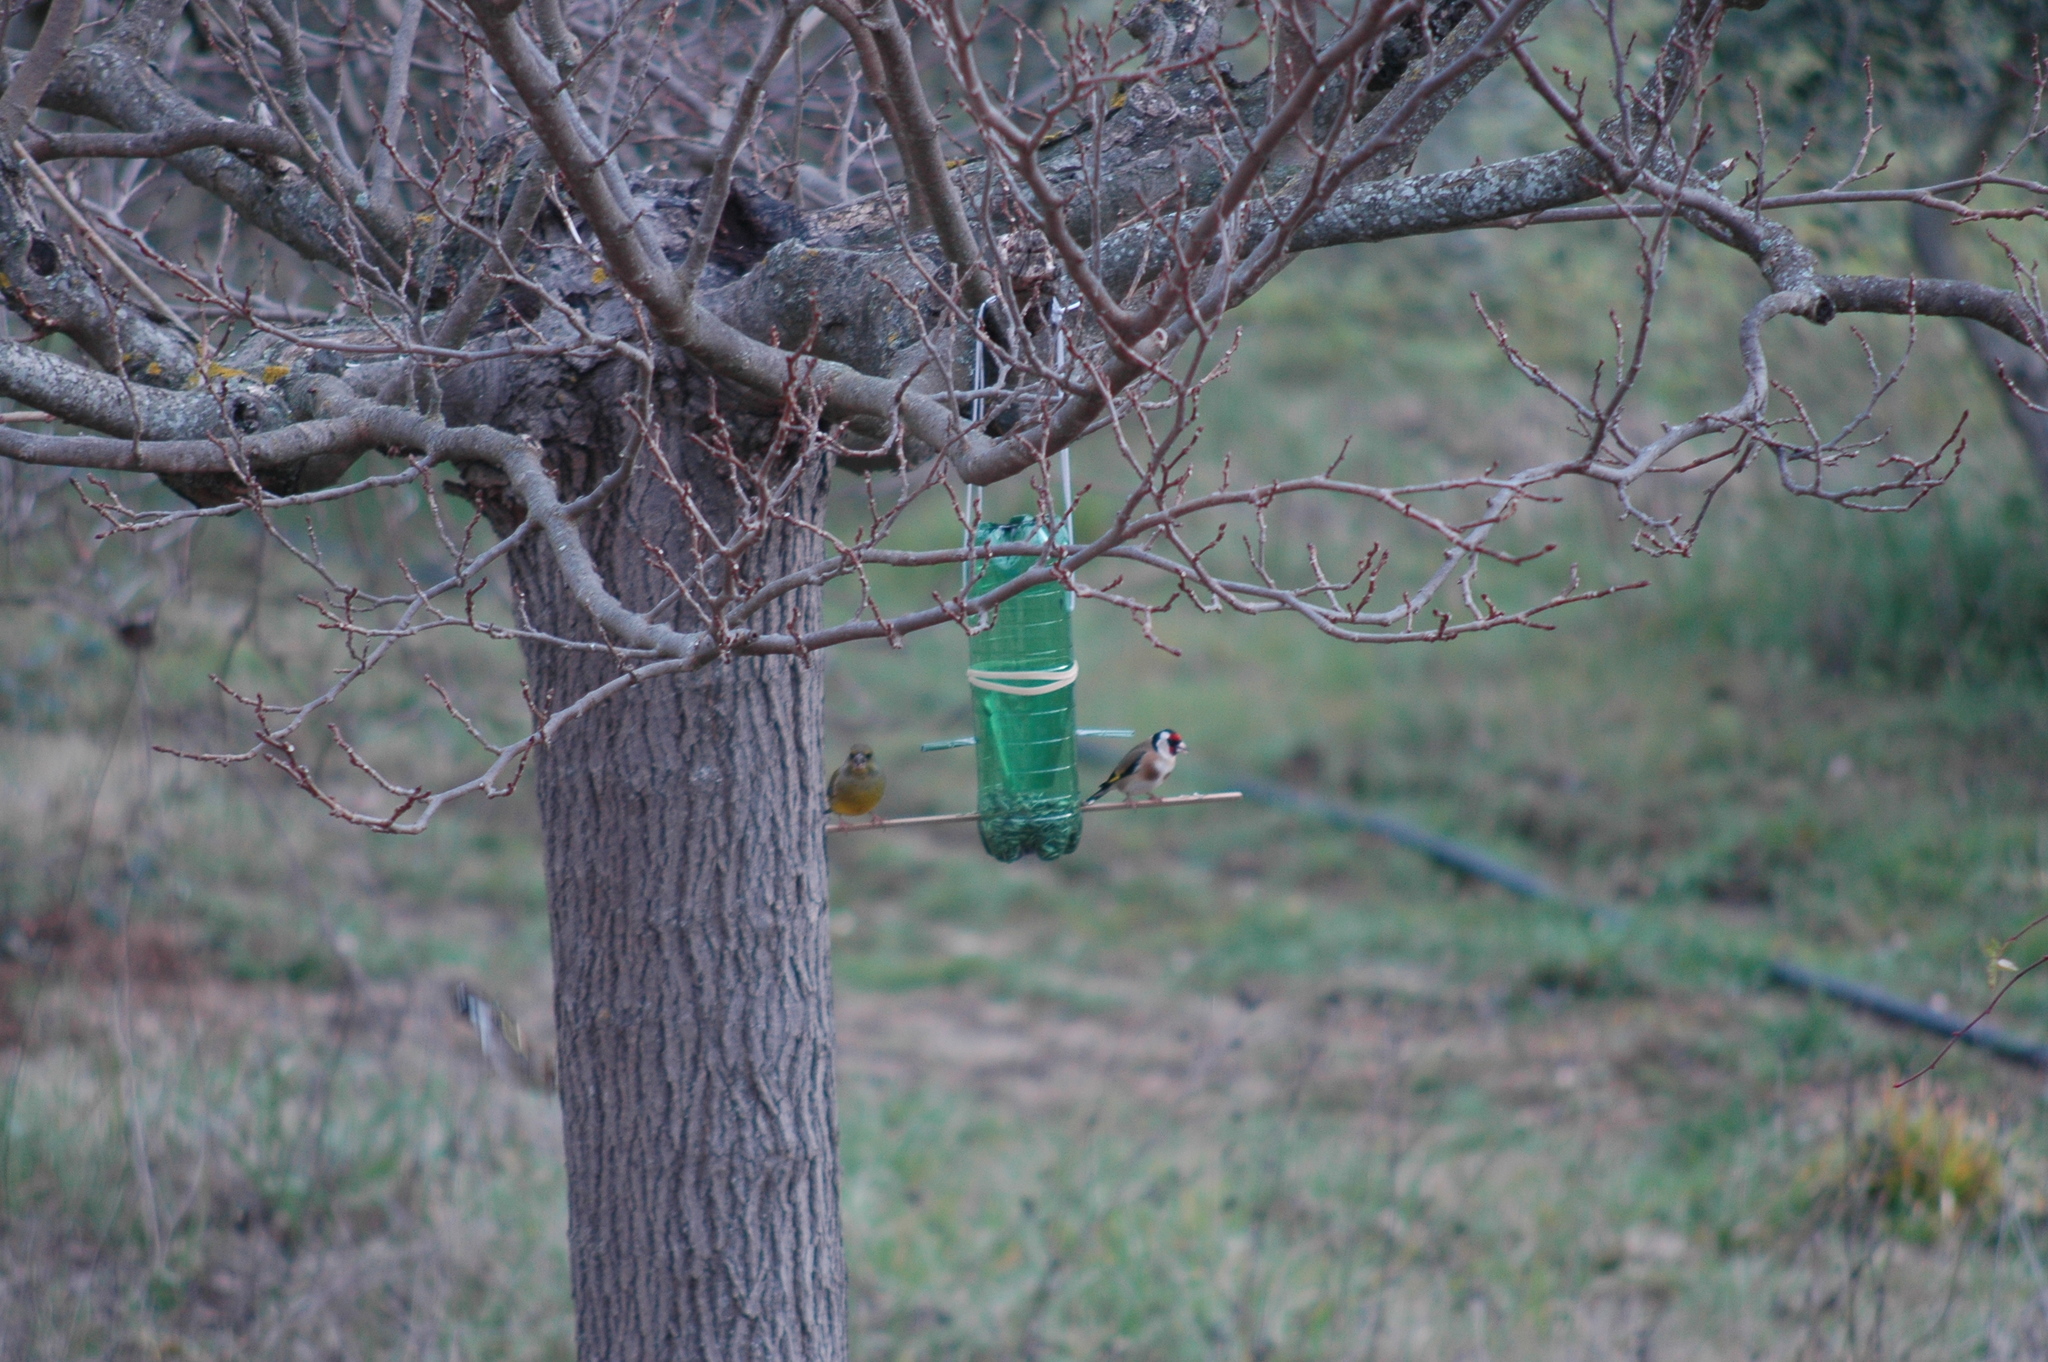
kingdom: Plantae
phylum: Tracheophyta
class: Liliopsida
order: Poales
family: Poaceae
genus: Chloris
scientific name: Chloris chloris
